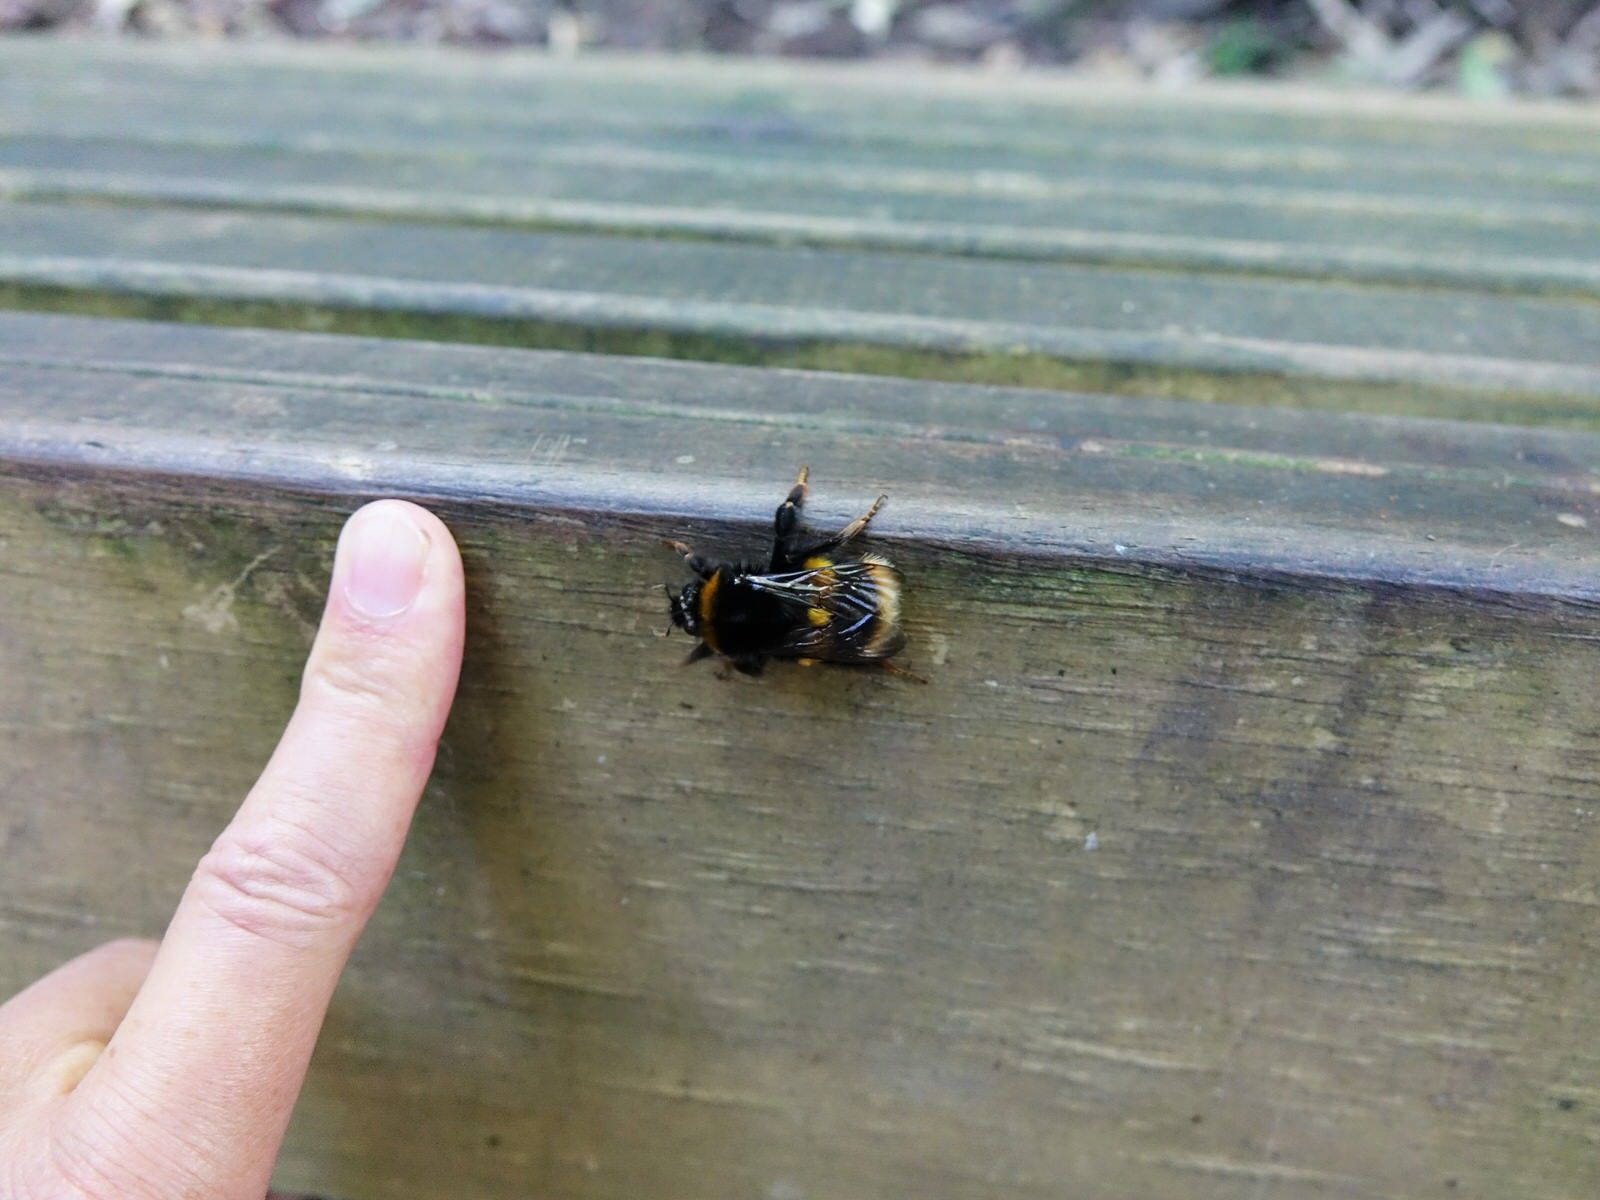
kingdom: Animalia
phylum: Arthropoda
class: Insecta
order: Hymenoptera
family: Apidae
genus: Bombus
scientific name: Bombus terrestris
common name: Buff-tailed bumblebee
